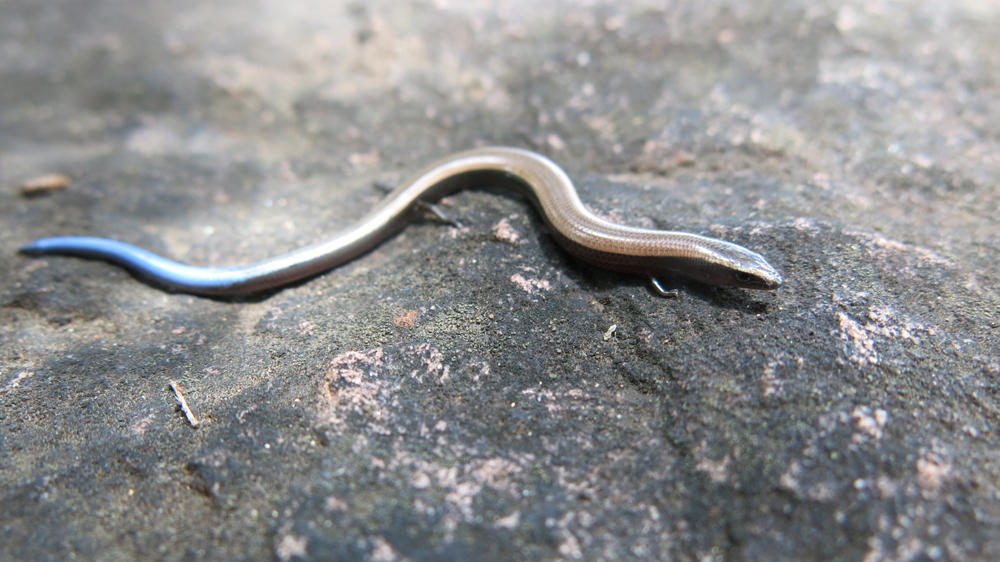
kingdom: Animalia
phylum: Chordata
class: Squamata
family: Scincidae
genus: Scelotes
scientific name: Scelotes limpopoensis
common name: Limpopo dwarf burrowing skink
